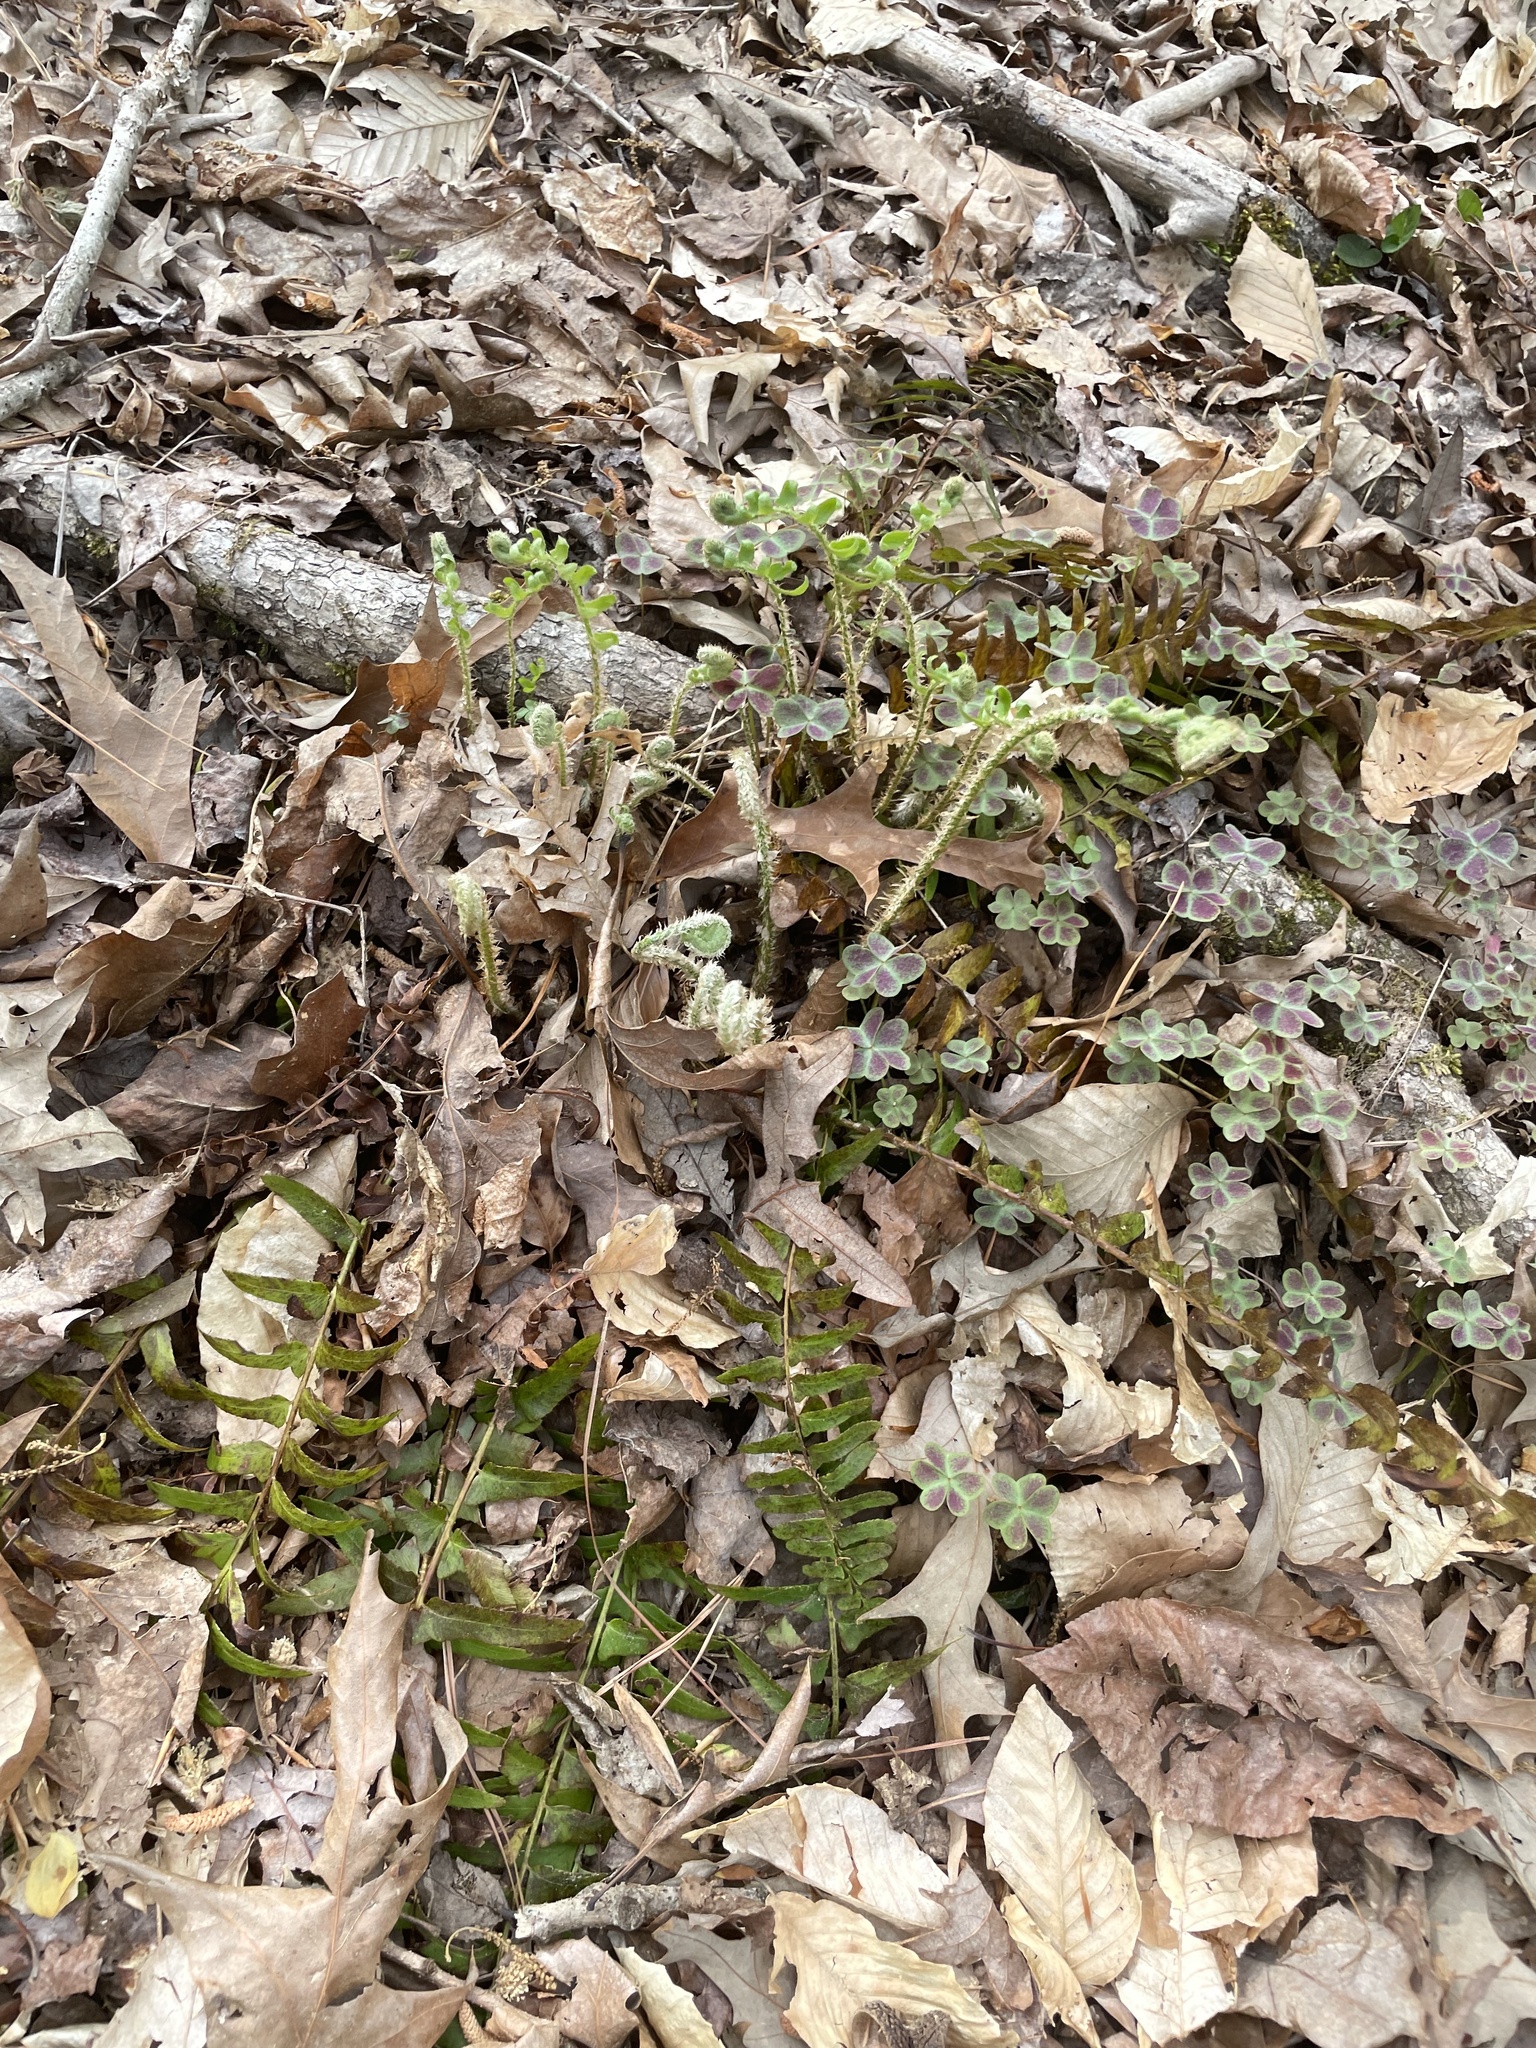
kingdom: Plantae
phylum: Tracheophyta
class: Polypodiopsida
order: Polypodiales
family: Dryopteridaceae
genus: Polystichum
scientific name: Polystichum acrostichoides
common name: Christmas fern
